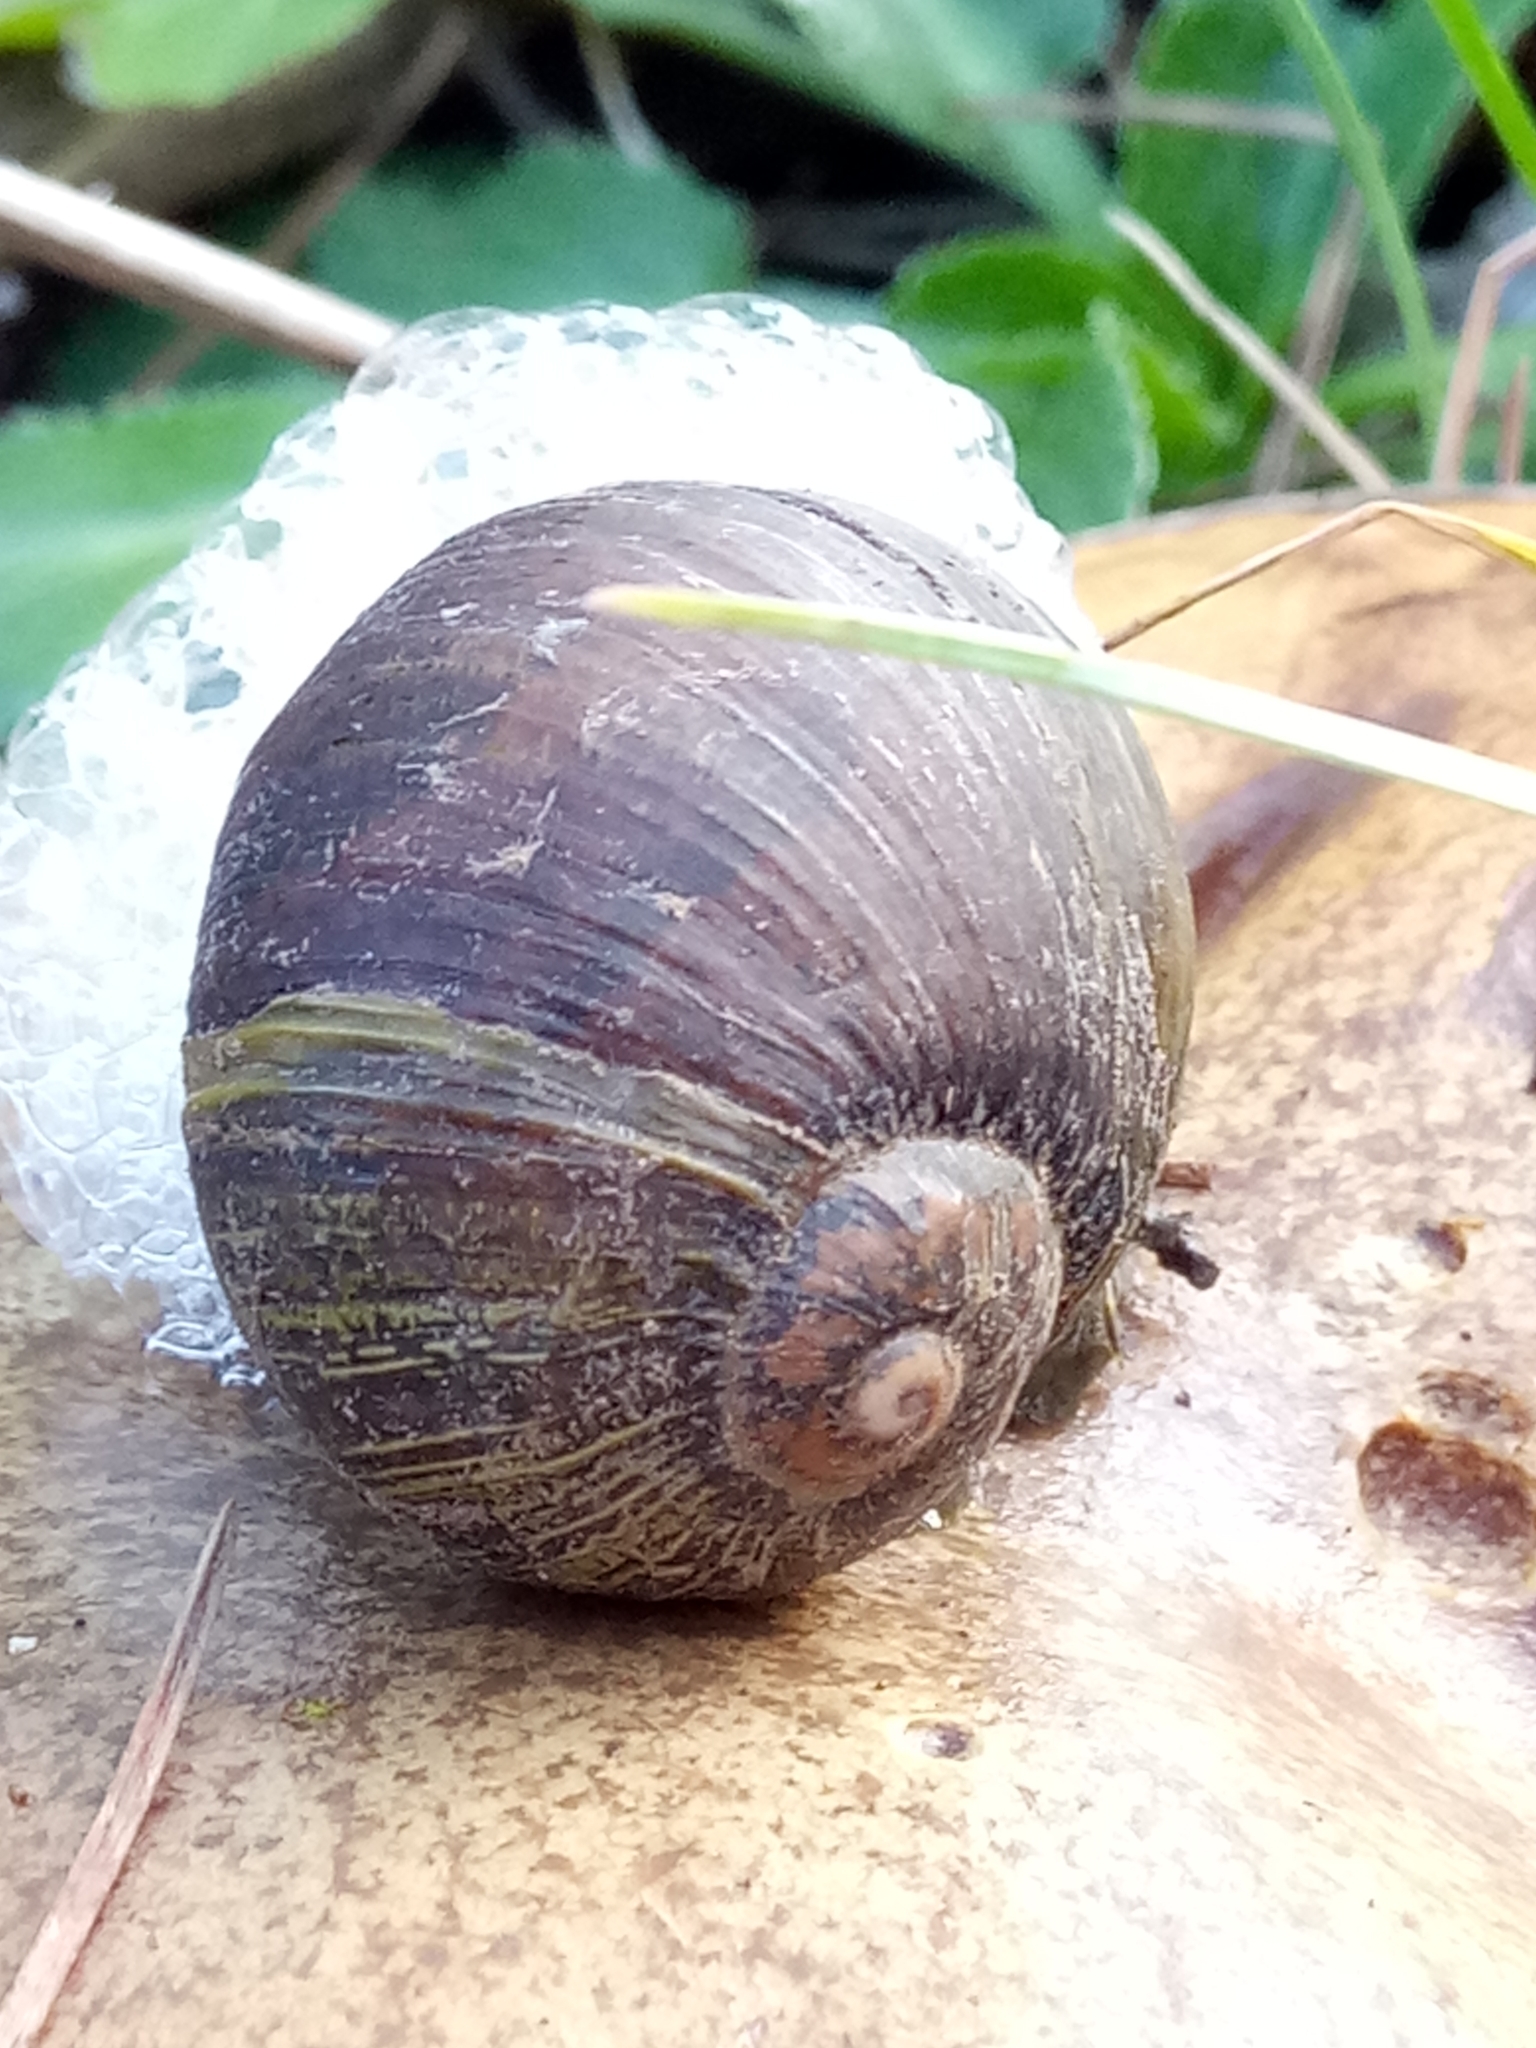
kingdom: Animalia
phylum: Mollusca
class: Gastropoda
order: Stylommatophora
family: Helicidae
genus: Cantareus
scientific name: Cantareus apertus
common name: Green gardensnail
